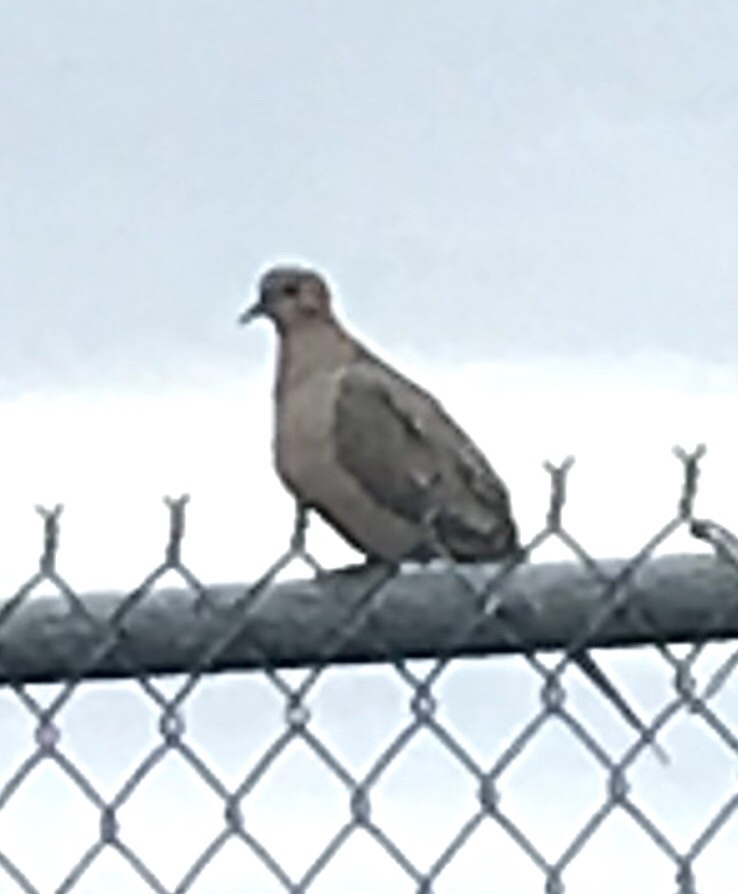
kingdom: Animalia
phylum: Chordata
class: Aves
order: Columbiformes
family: Columbidae
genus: Zenaida
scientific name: Zenaida macroura
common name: Mourning dove
